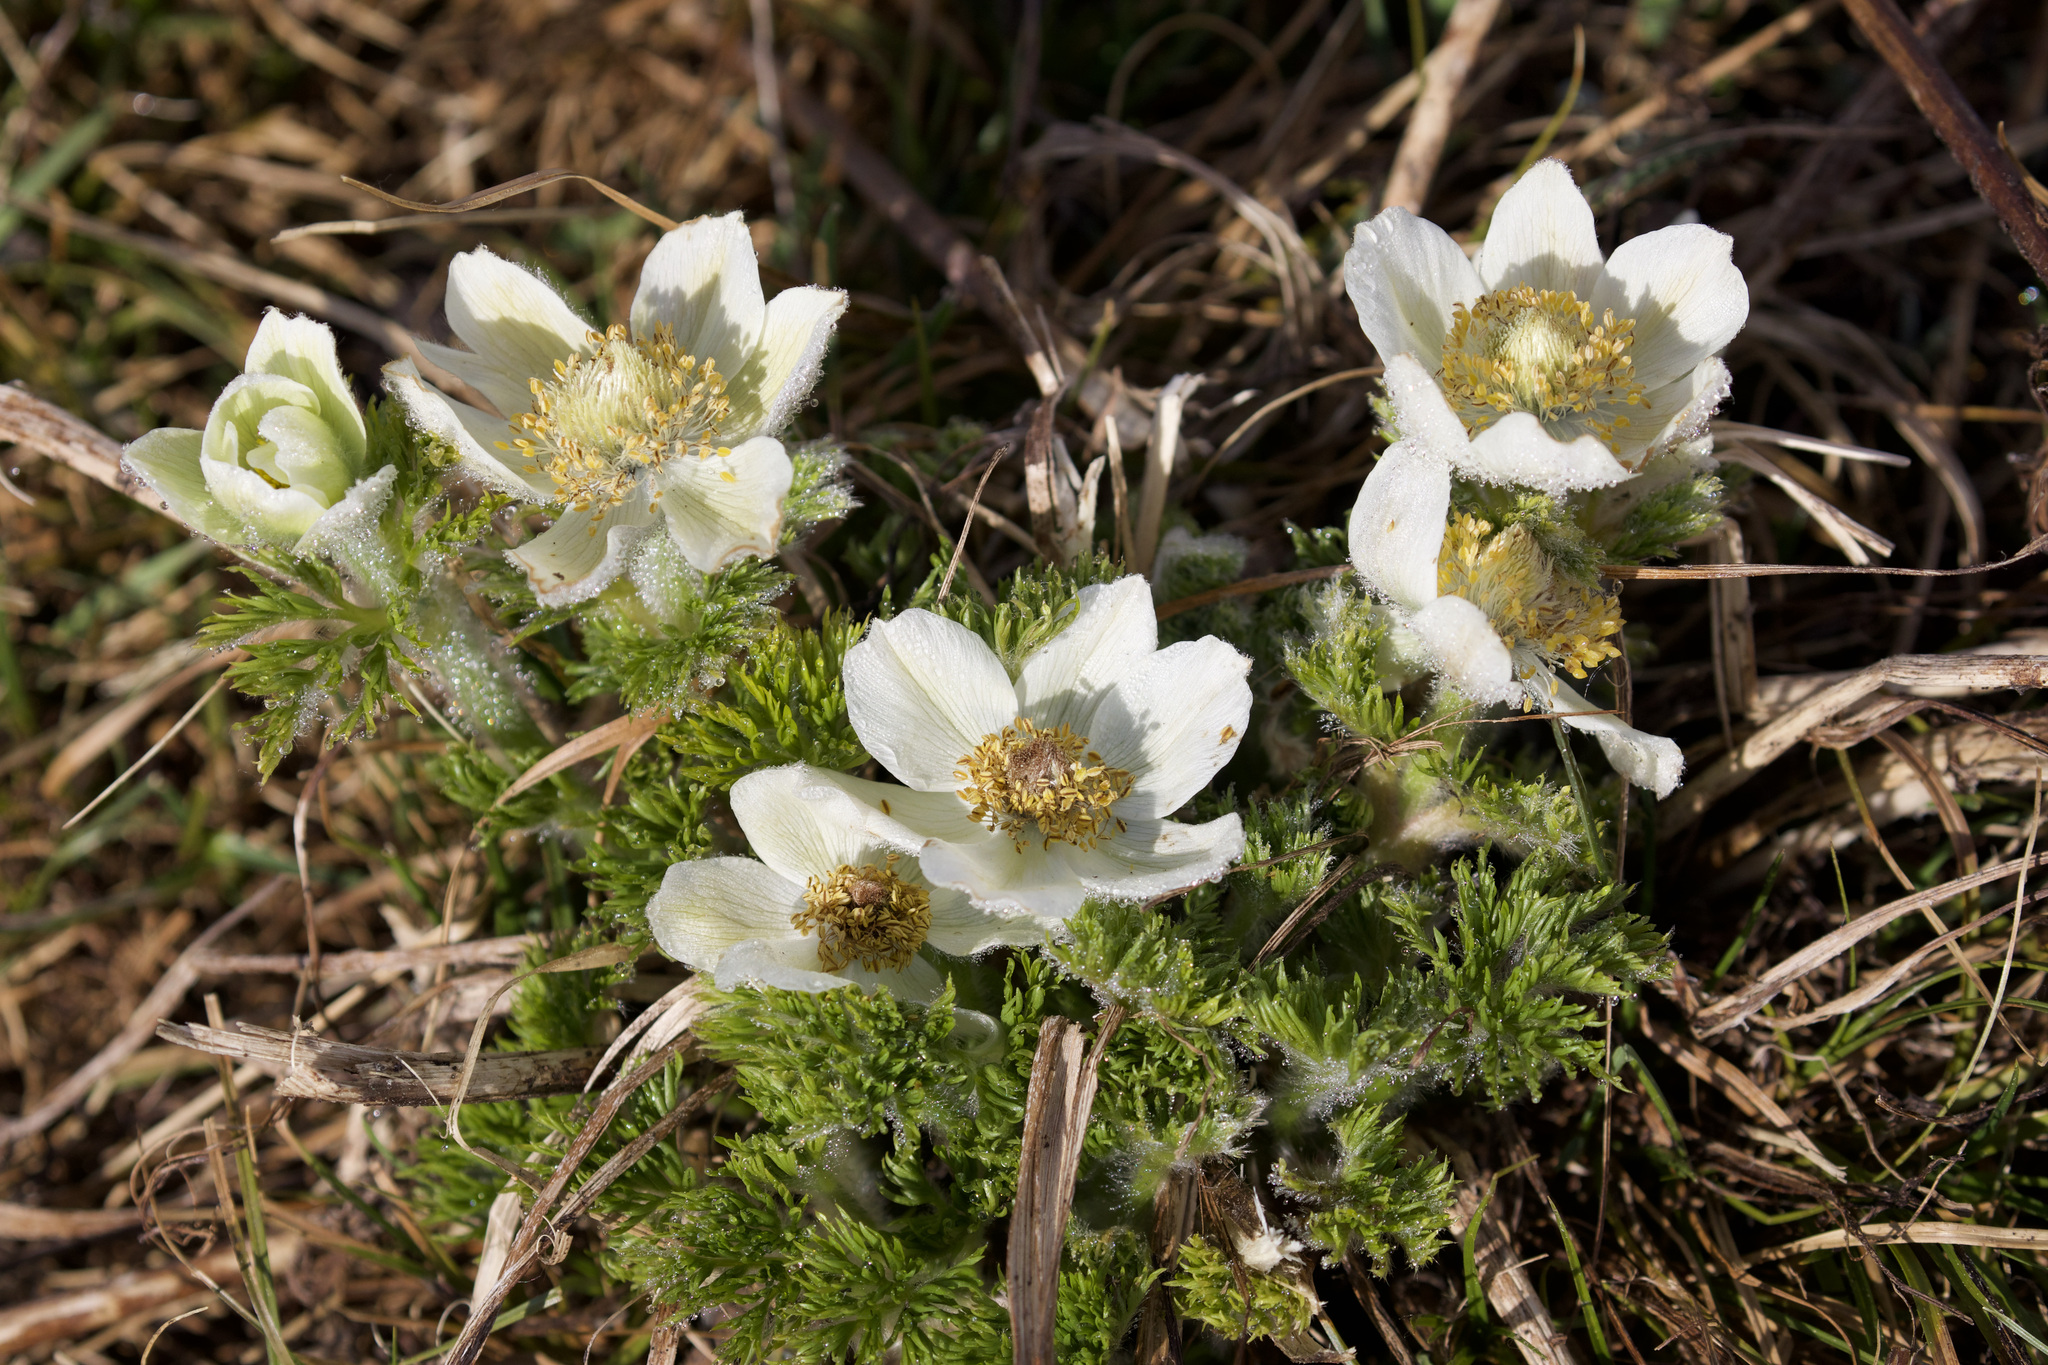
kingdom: Plantae
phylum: Tracheophyta
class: Magnoliopsida
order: Ranunculales
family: Ranunculaceae
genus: Pulsatilla
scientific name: Pulsatilla occidentalis
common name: Mountain pasqueflower
